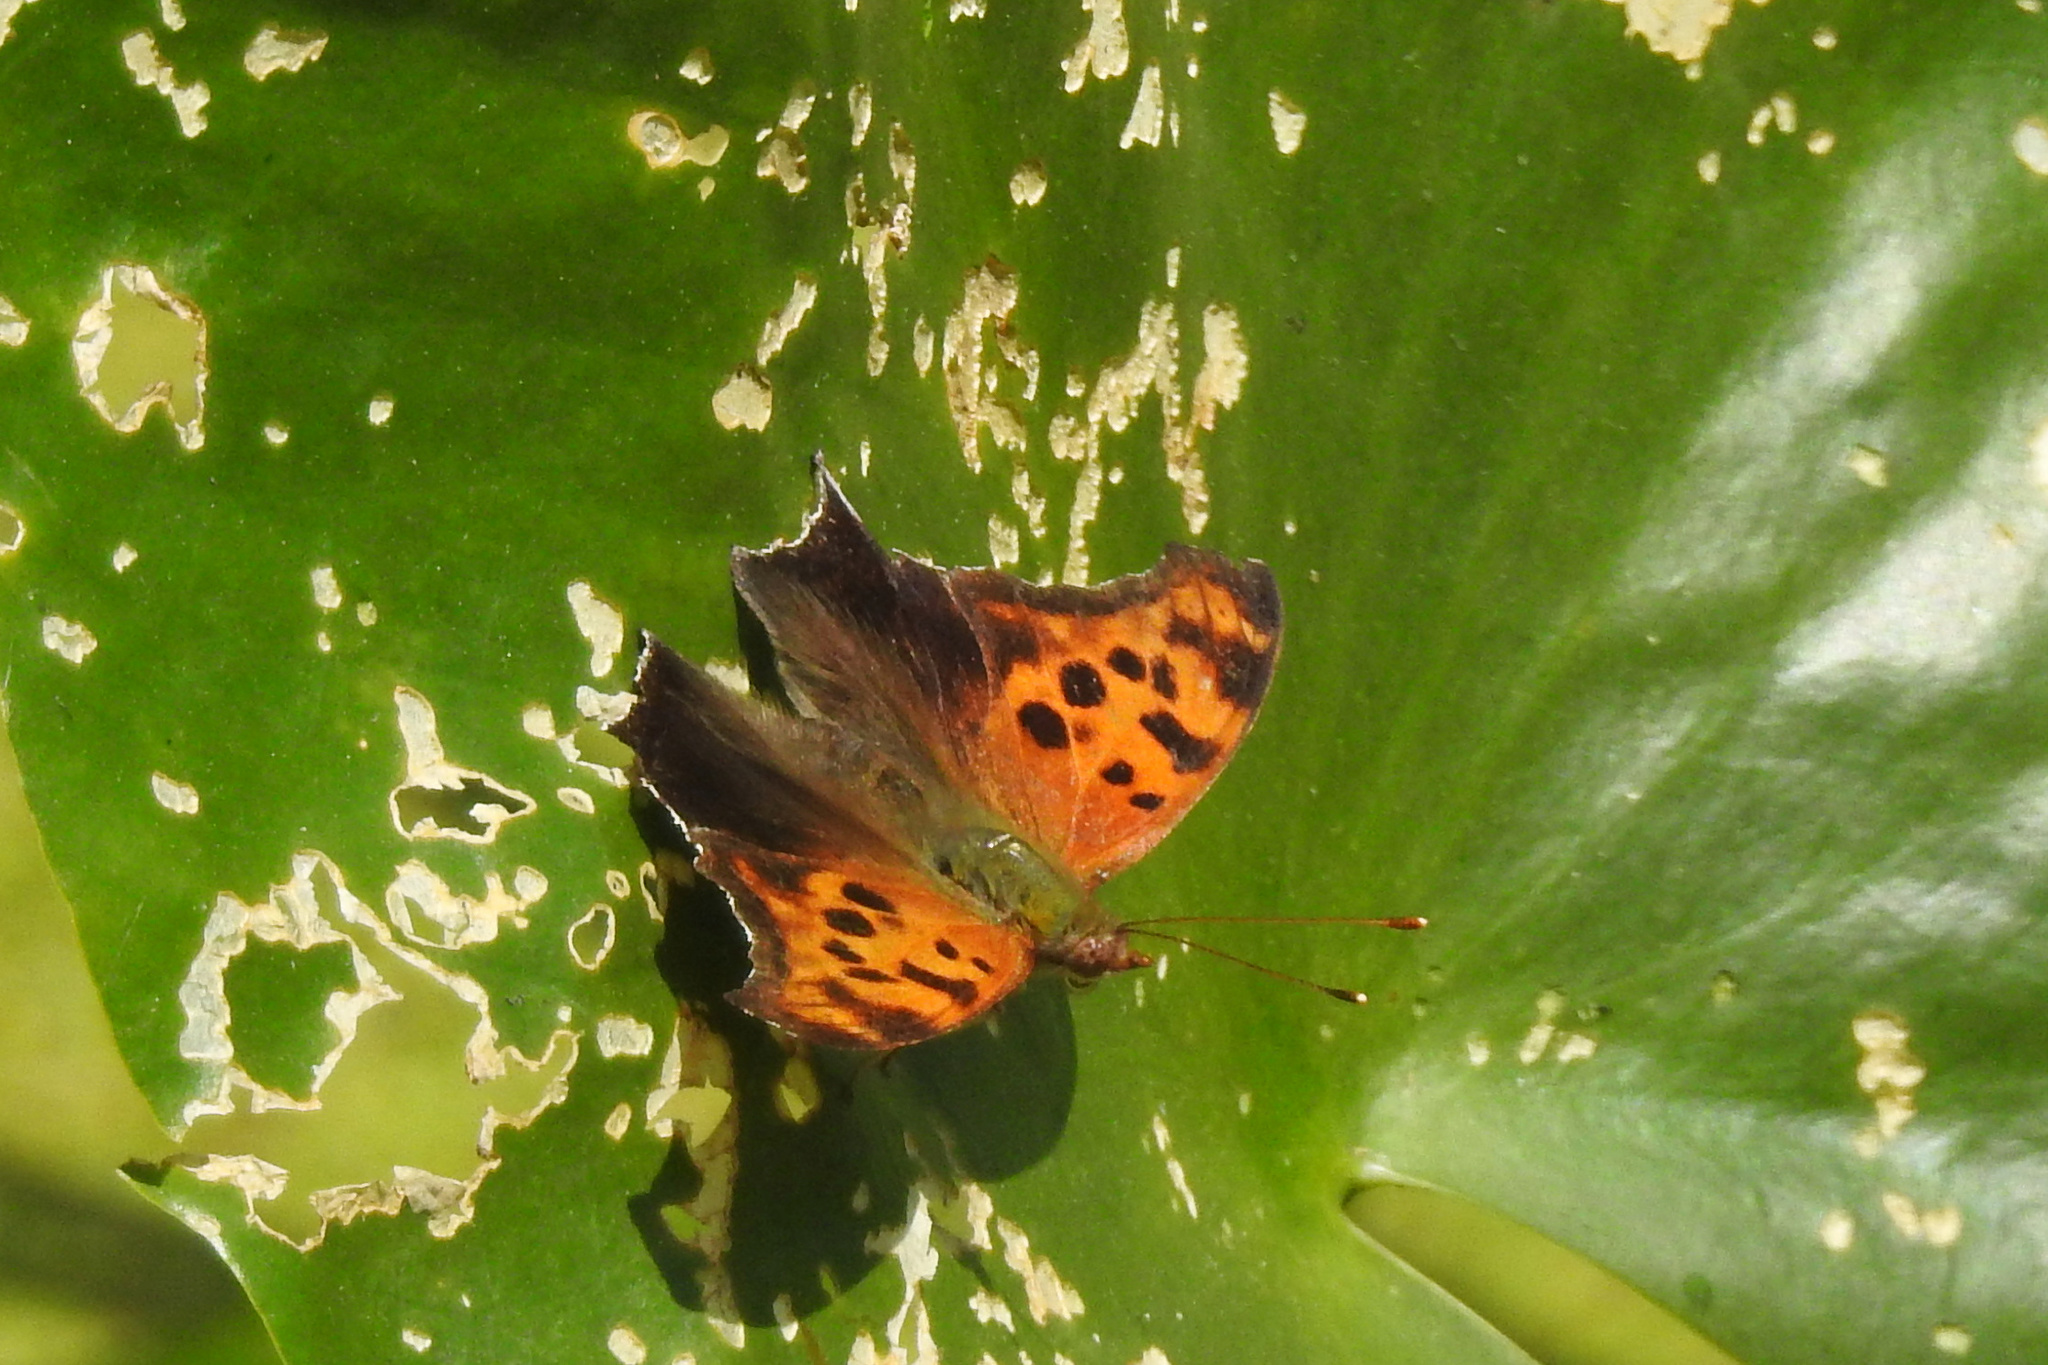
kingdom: Animalia
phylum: Arthropoda
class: Insecta
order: Lepidoptera
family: Nymphalidae
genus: Polygonia
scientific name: Polygonia interrogationis
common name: Question mark
